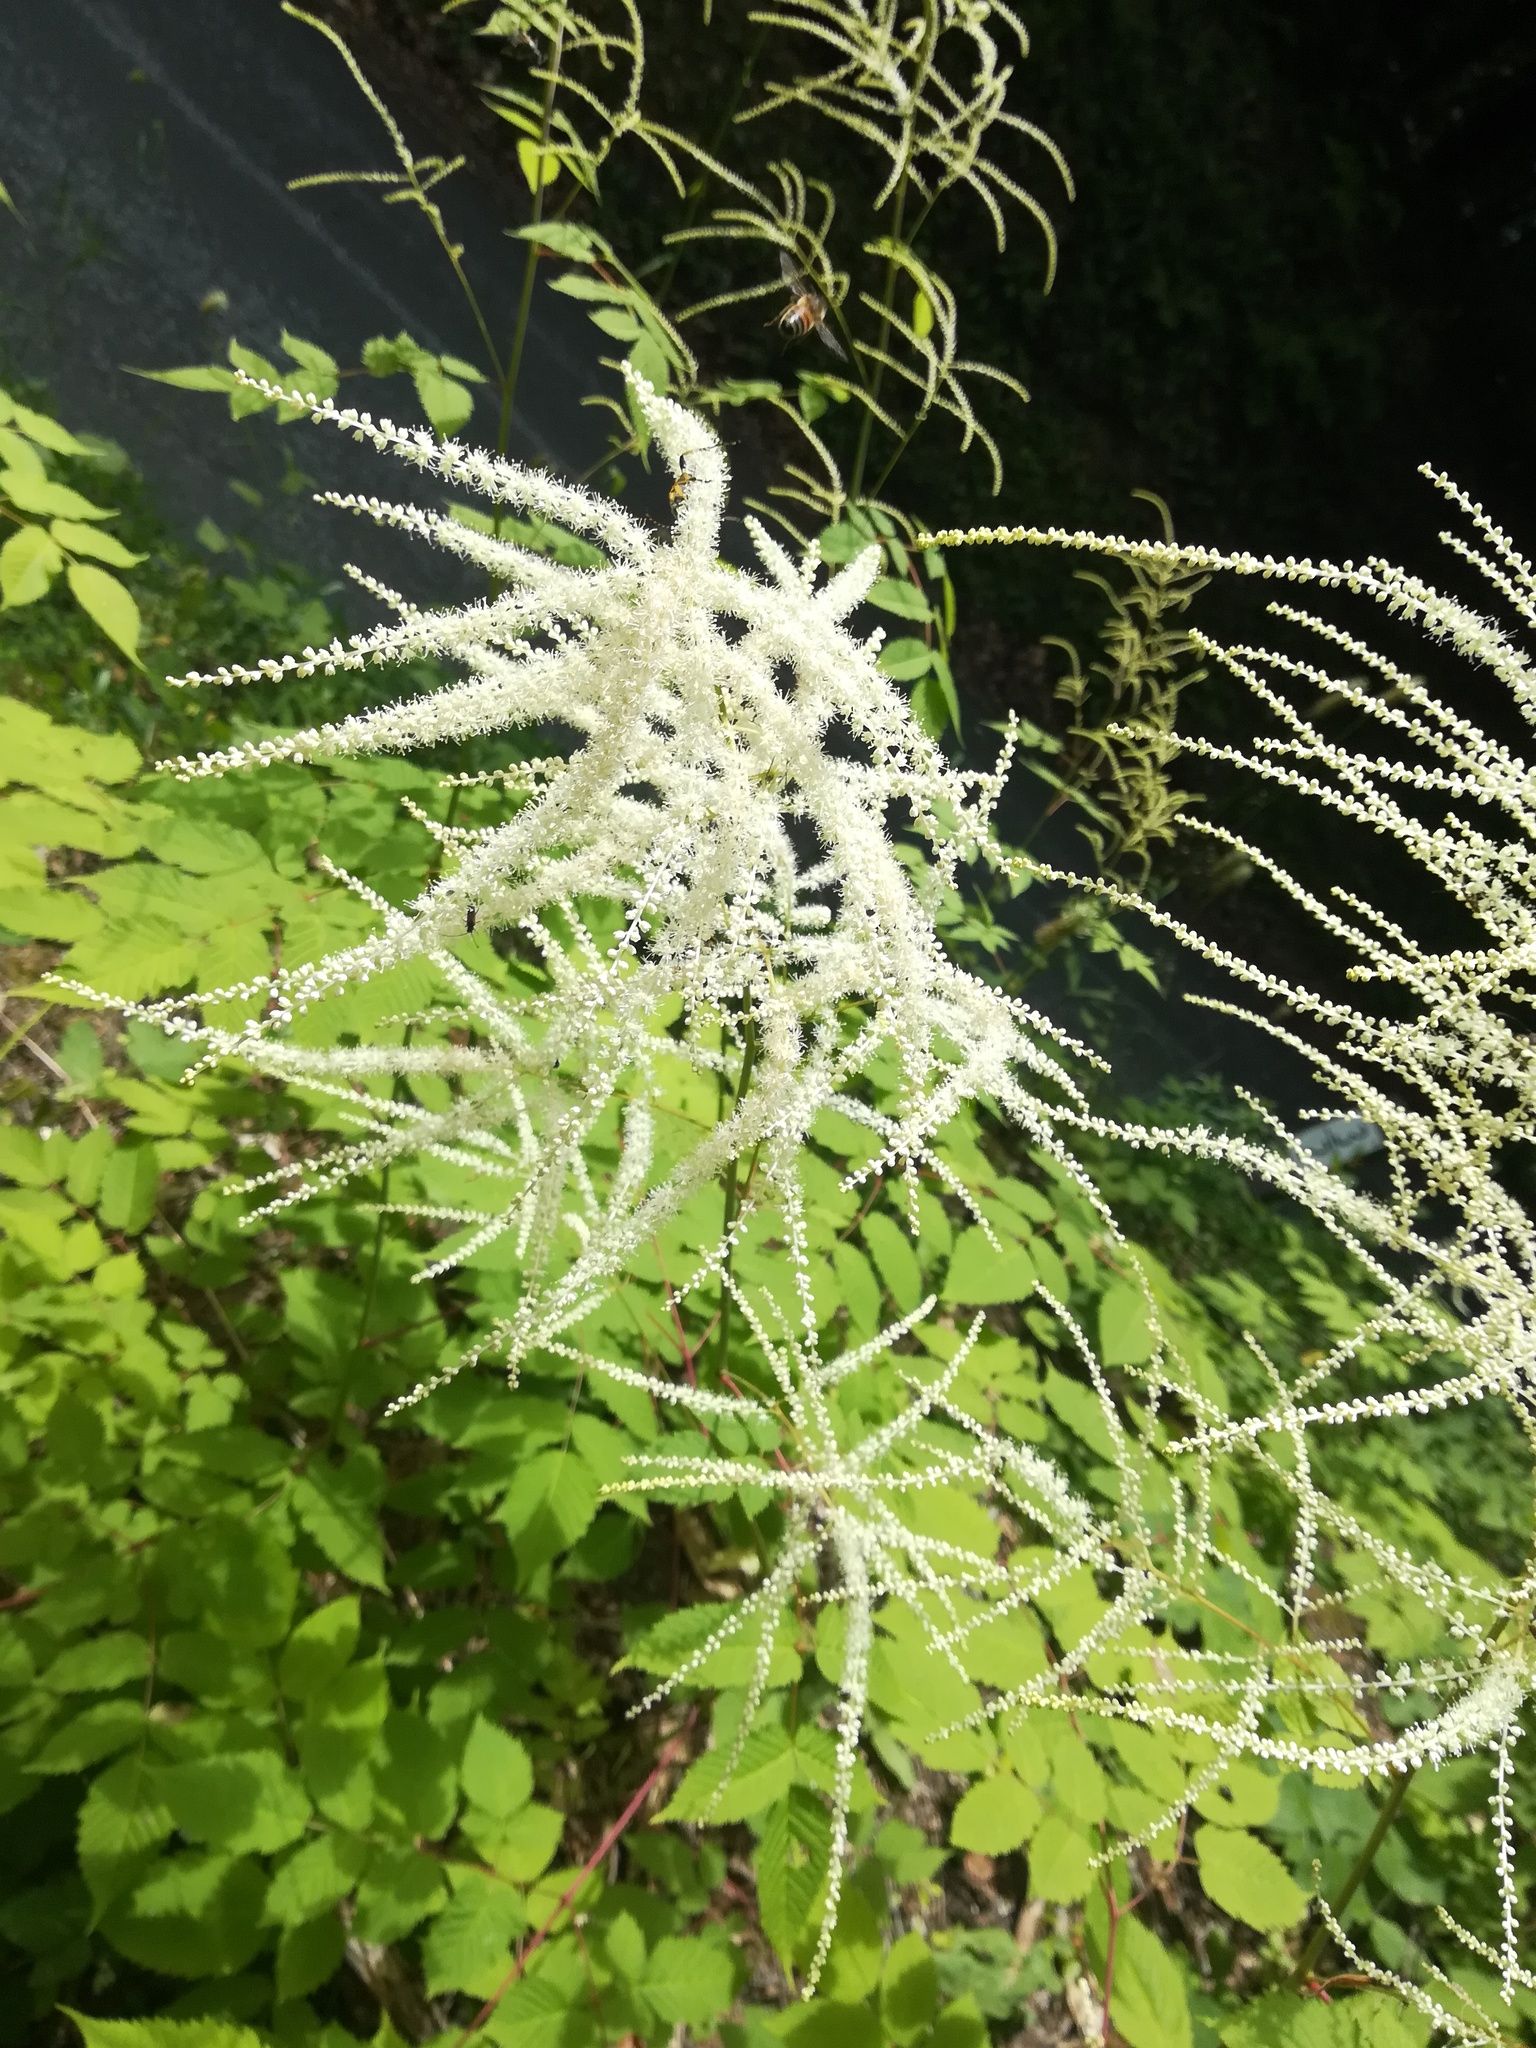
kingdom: Plantae
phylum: Tracheophyta
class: Magnoliopsida
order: Rosales
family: Rosaceae
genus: Aruncus
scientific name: Aruncus dioicus
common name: Buck's-beard
